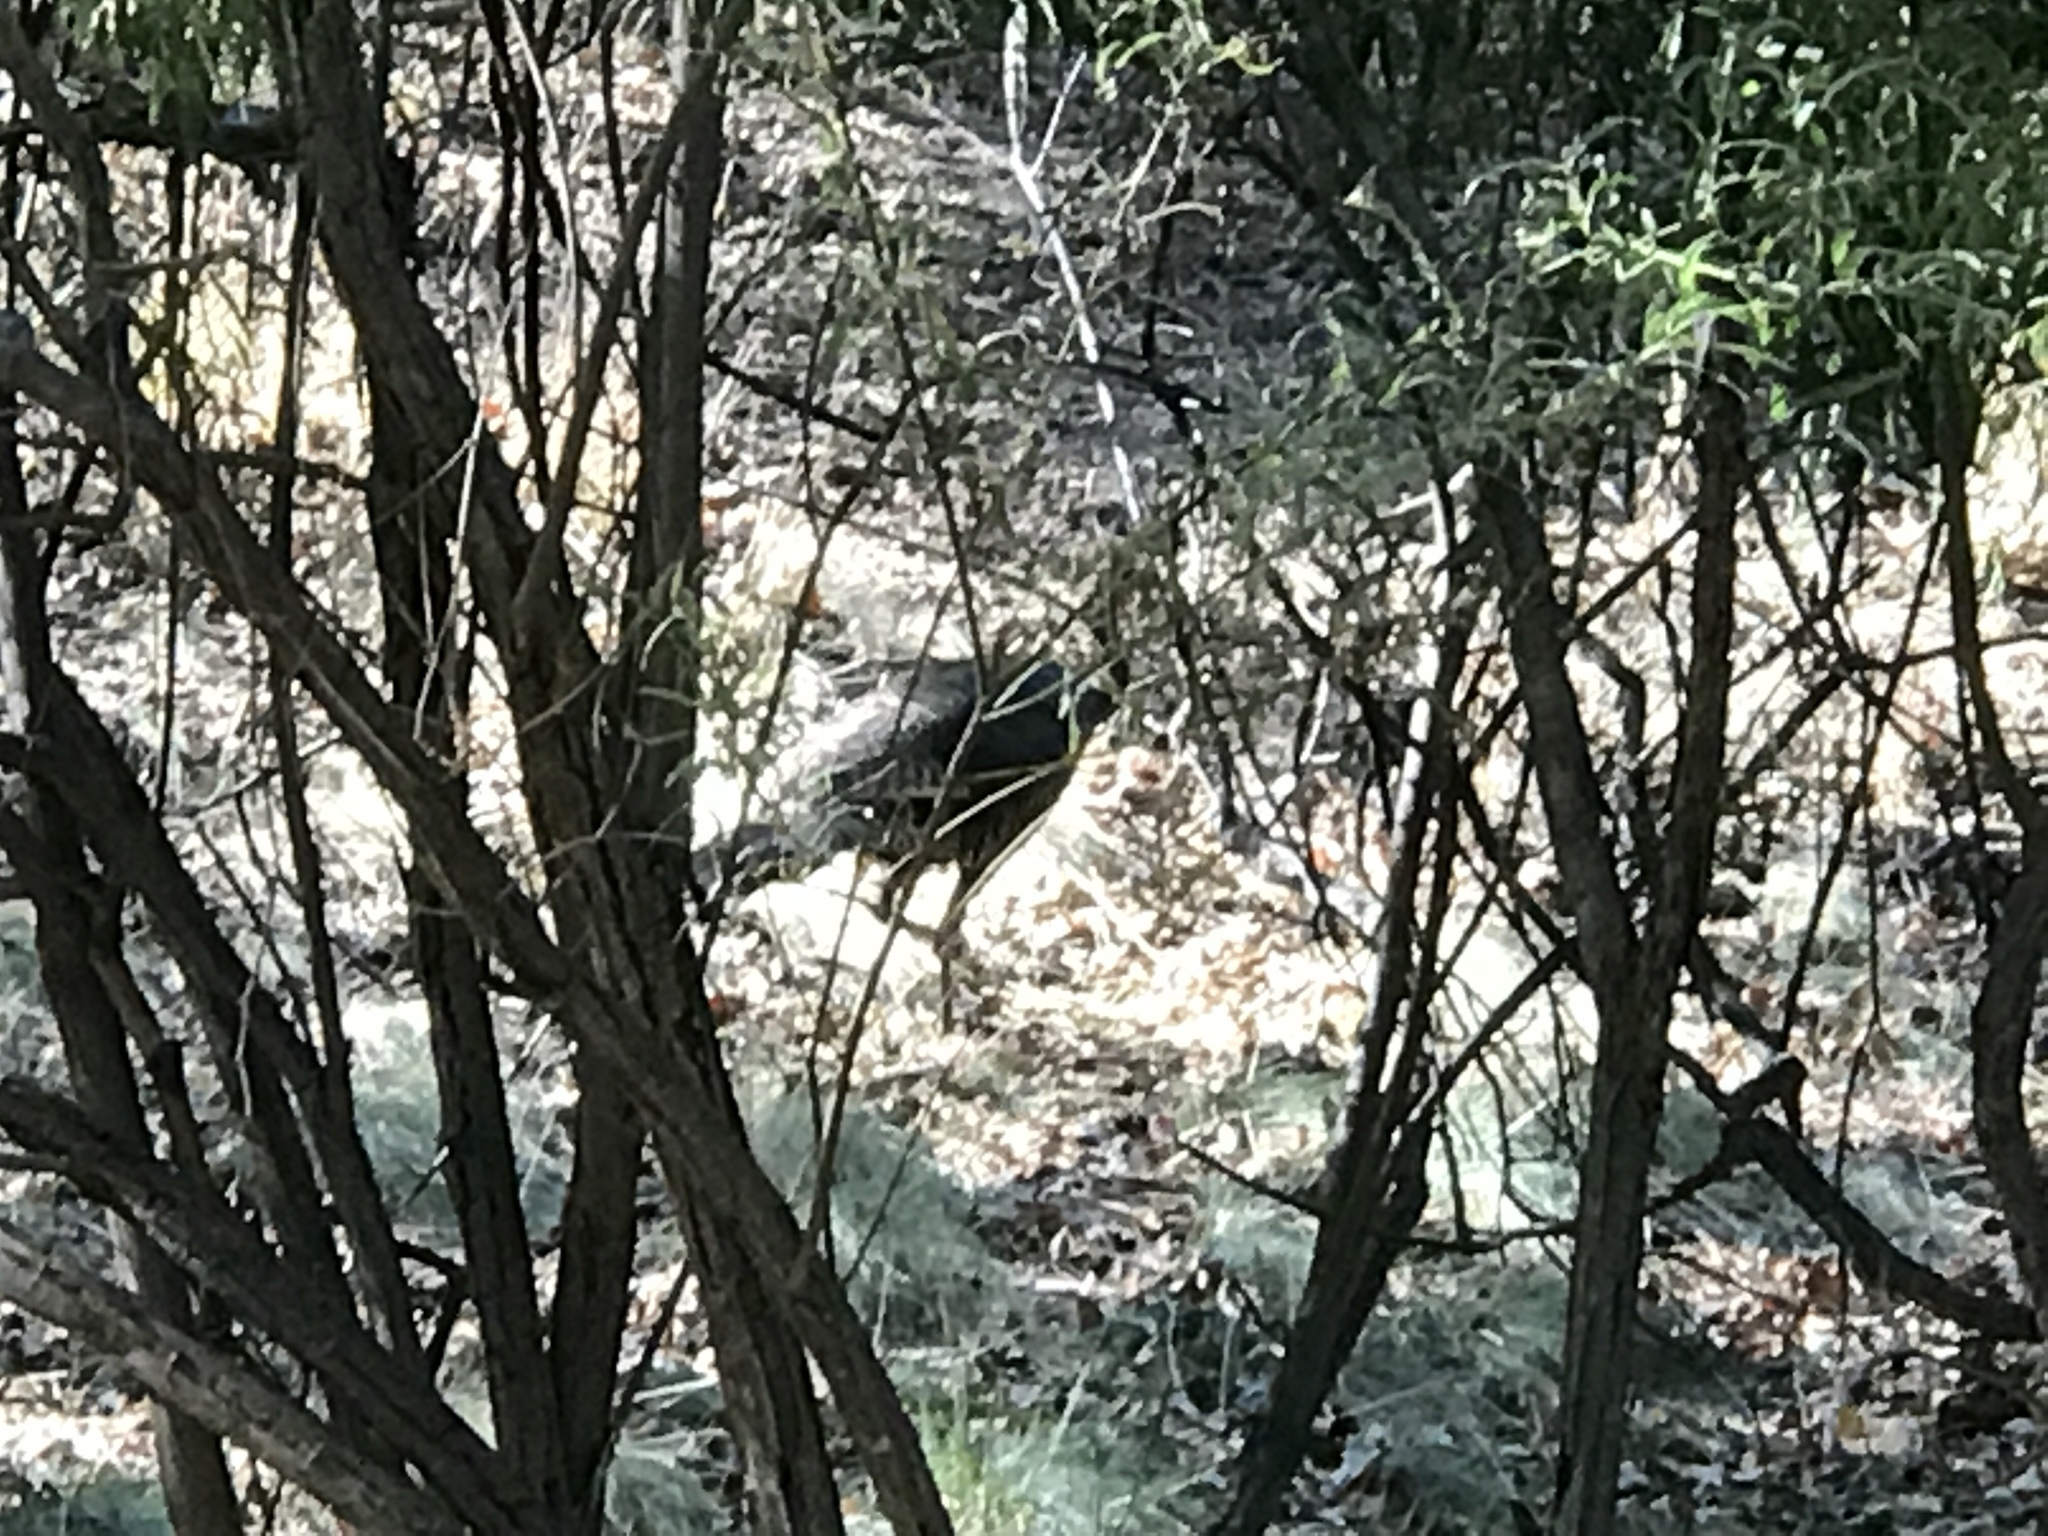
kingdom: Animalia
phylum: Chordata
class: Aves
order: Galliformes
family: Phasianidae
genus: Meleagris
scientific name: Meleagris gallopavo
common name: Wild turkey
